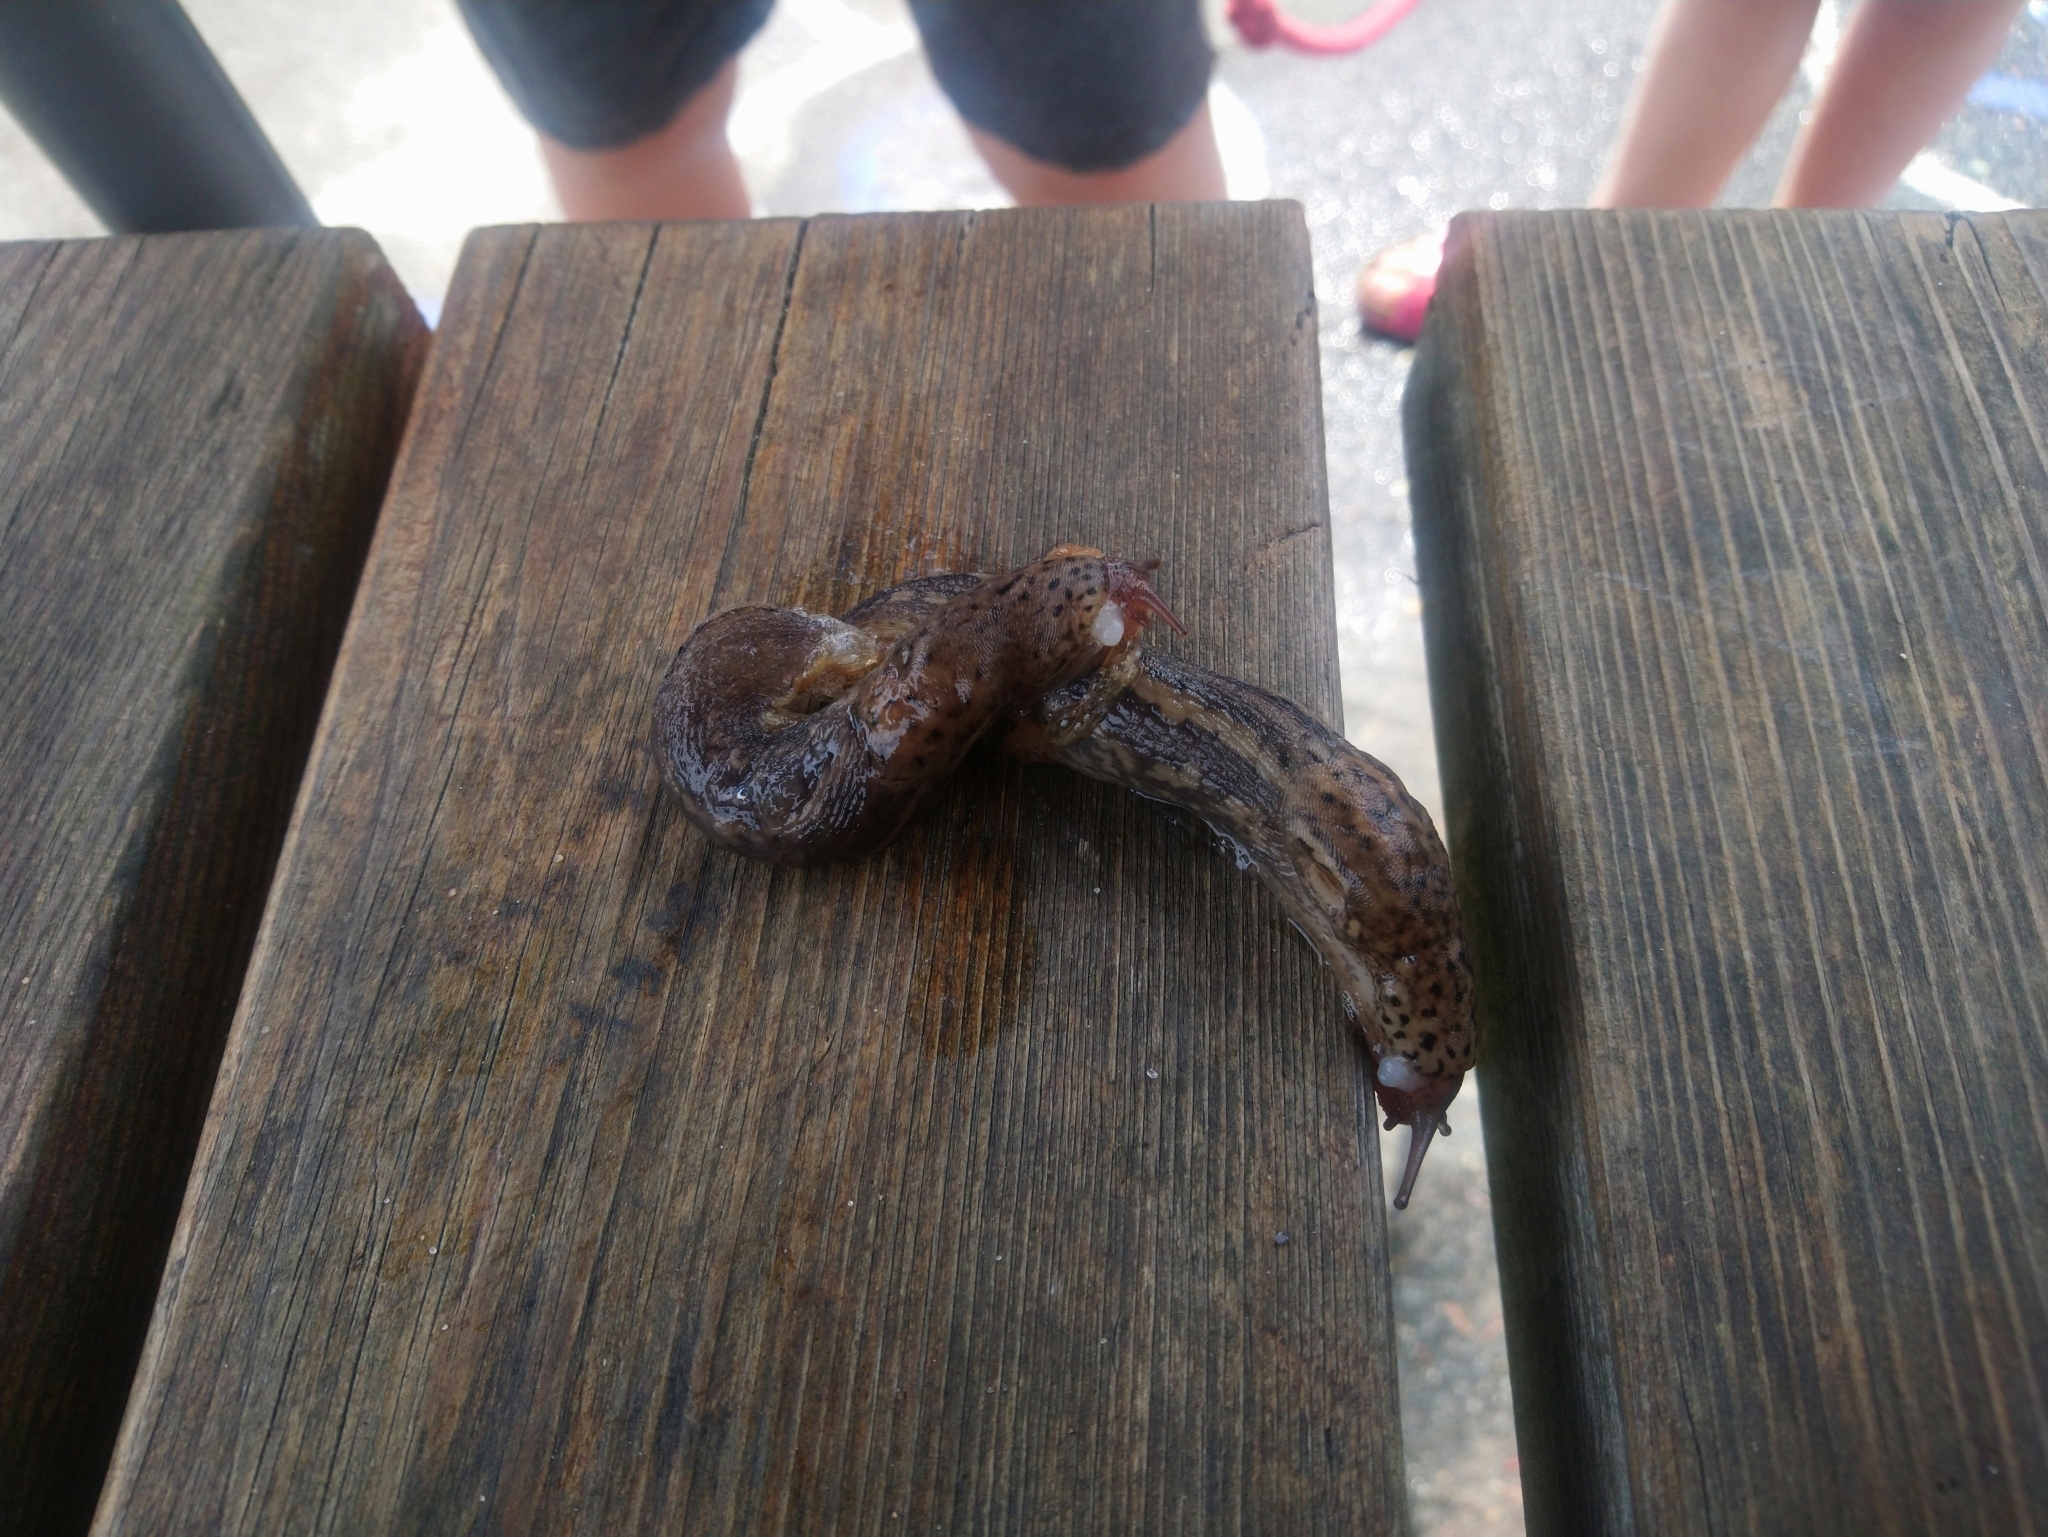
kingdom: Animalia
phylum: Mollusca
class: Gastropoda
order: Stylommatophora
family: Limacidae
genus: Limax
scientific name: Limax maximus
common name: Great grey slug
